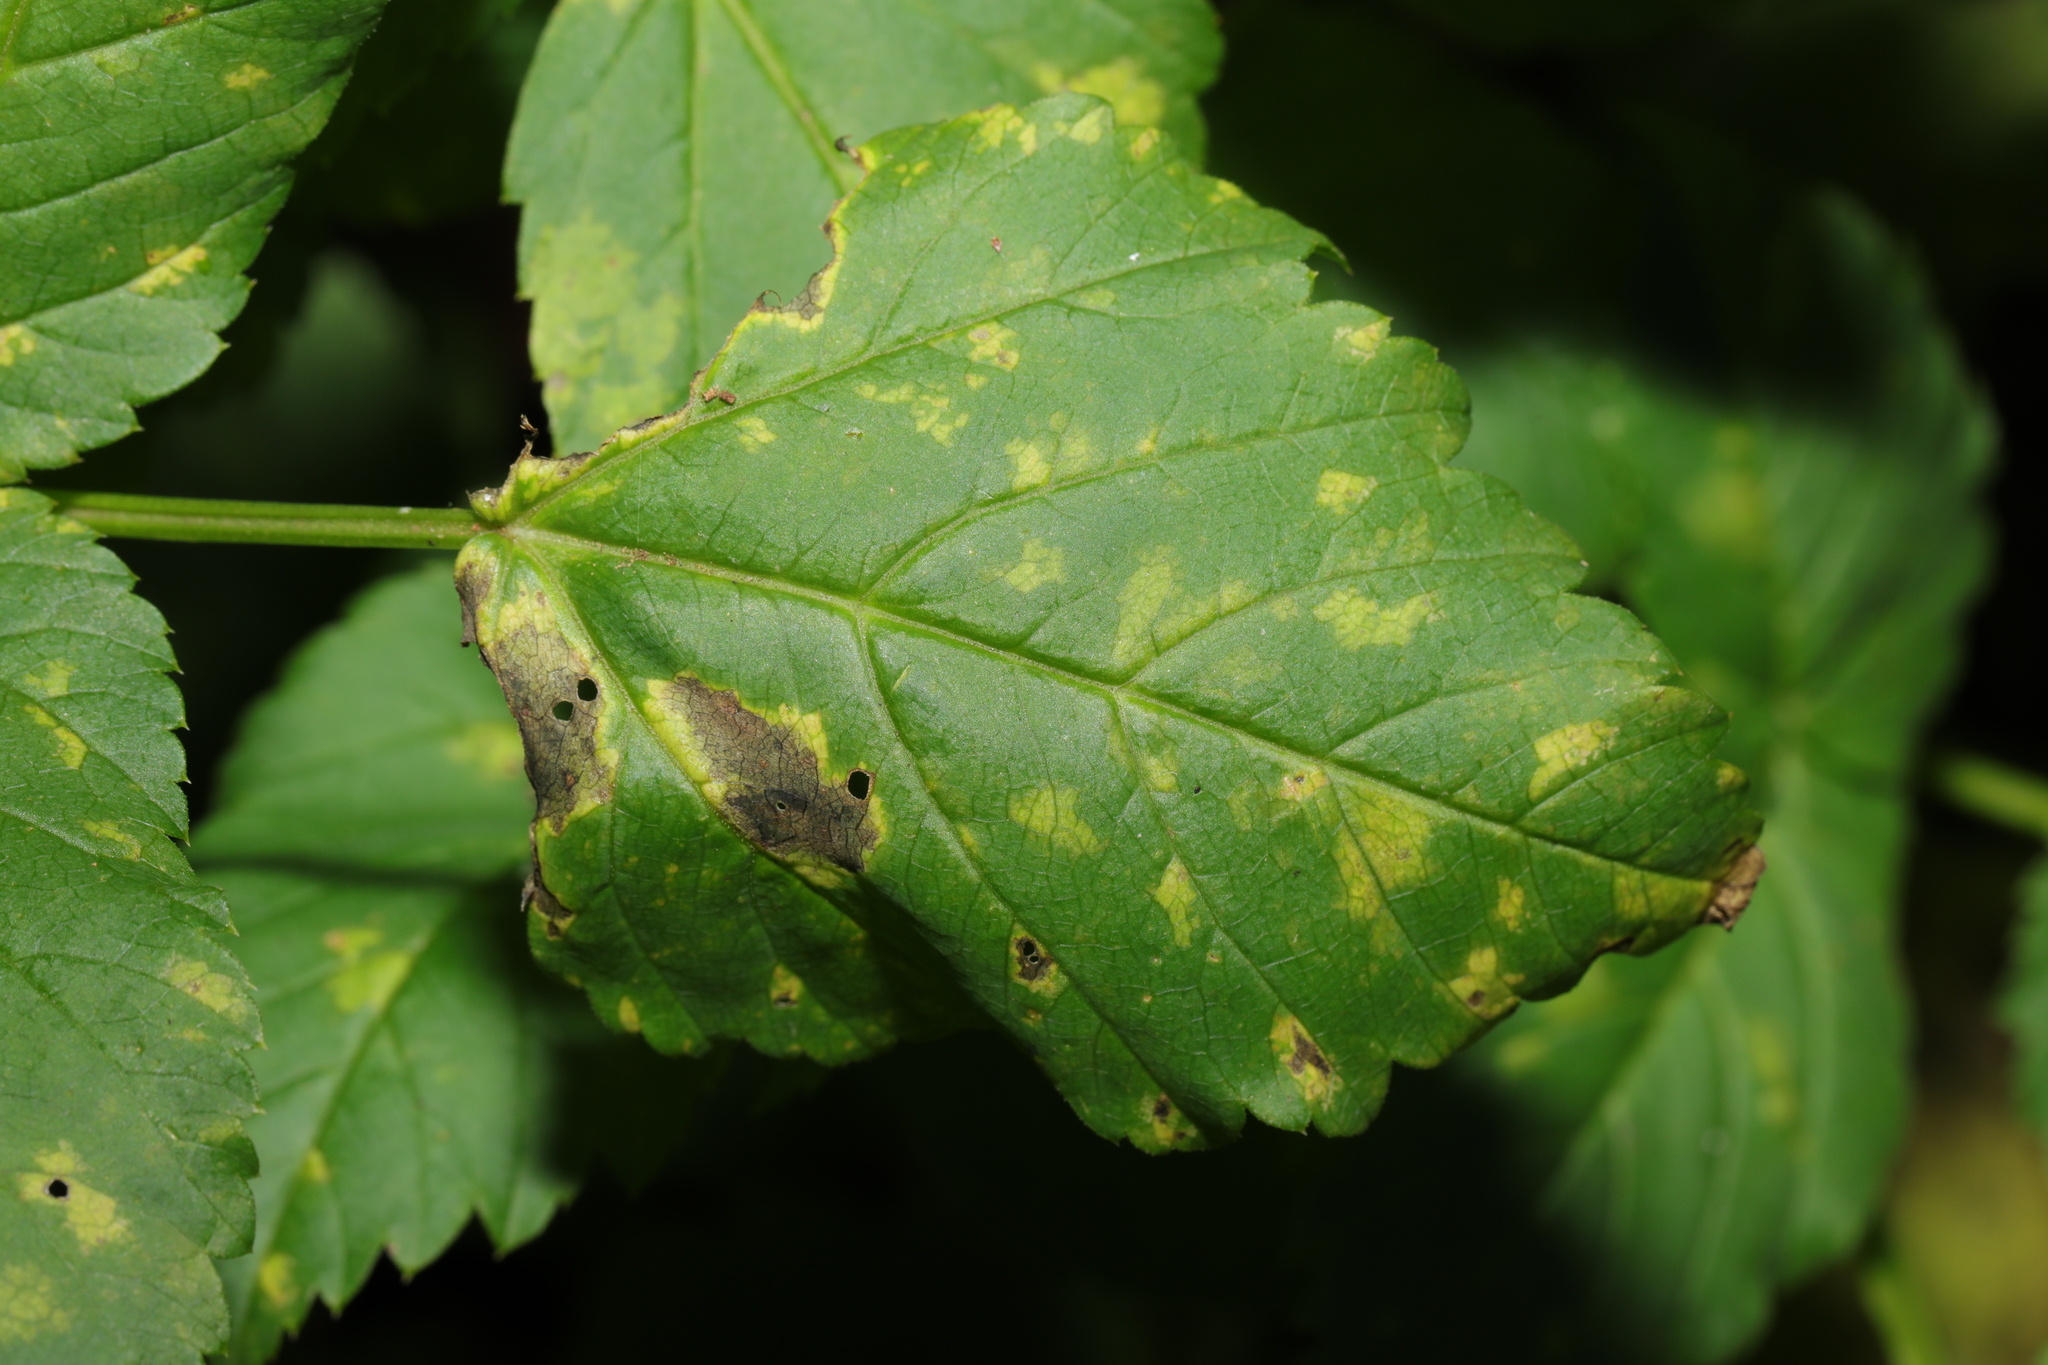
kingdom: Chromista
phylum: Oomycota
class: Peronosporea
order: Peronosporales
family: Peronosporaceae
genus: Peronospora
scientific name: Peronospora crustosa
